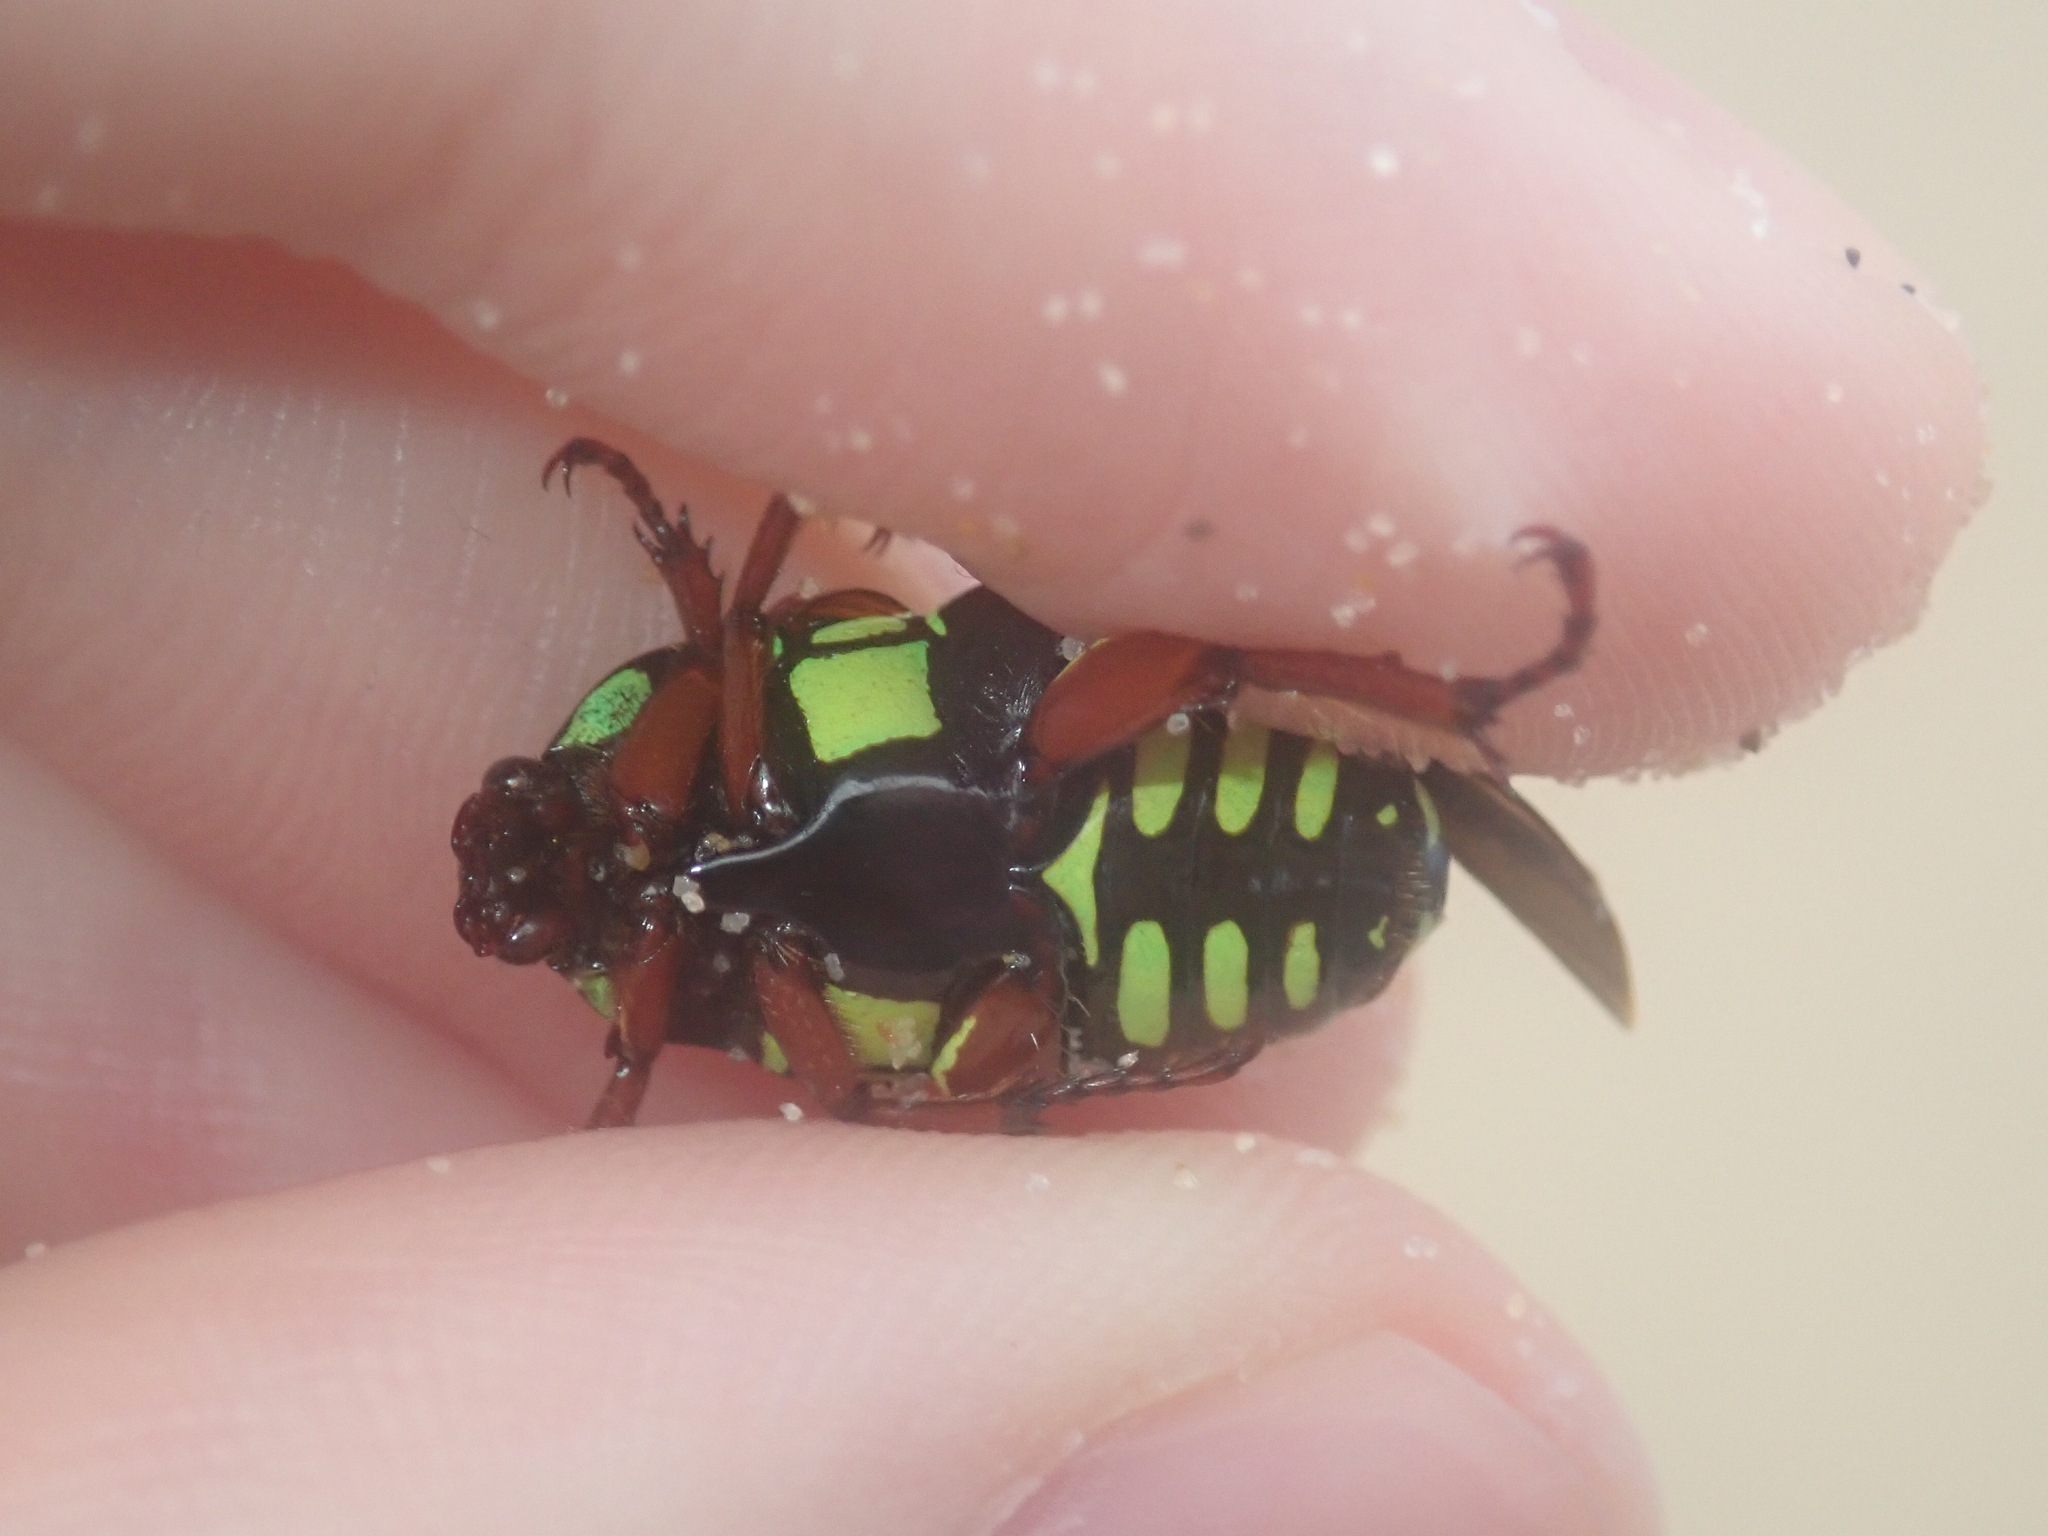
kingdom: Animalia
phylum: Arthropoda
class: Insecta
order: Coleoptera
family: Scarabaeidae
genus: Eupoecila
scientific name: Eupoecila australasiae
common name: Fiddler beetle
